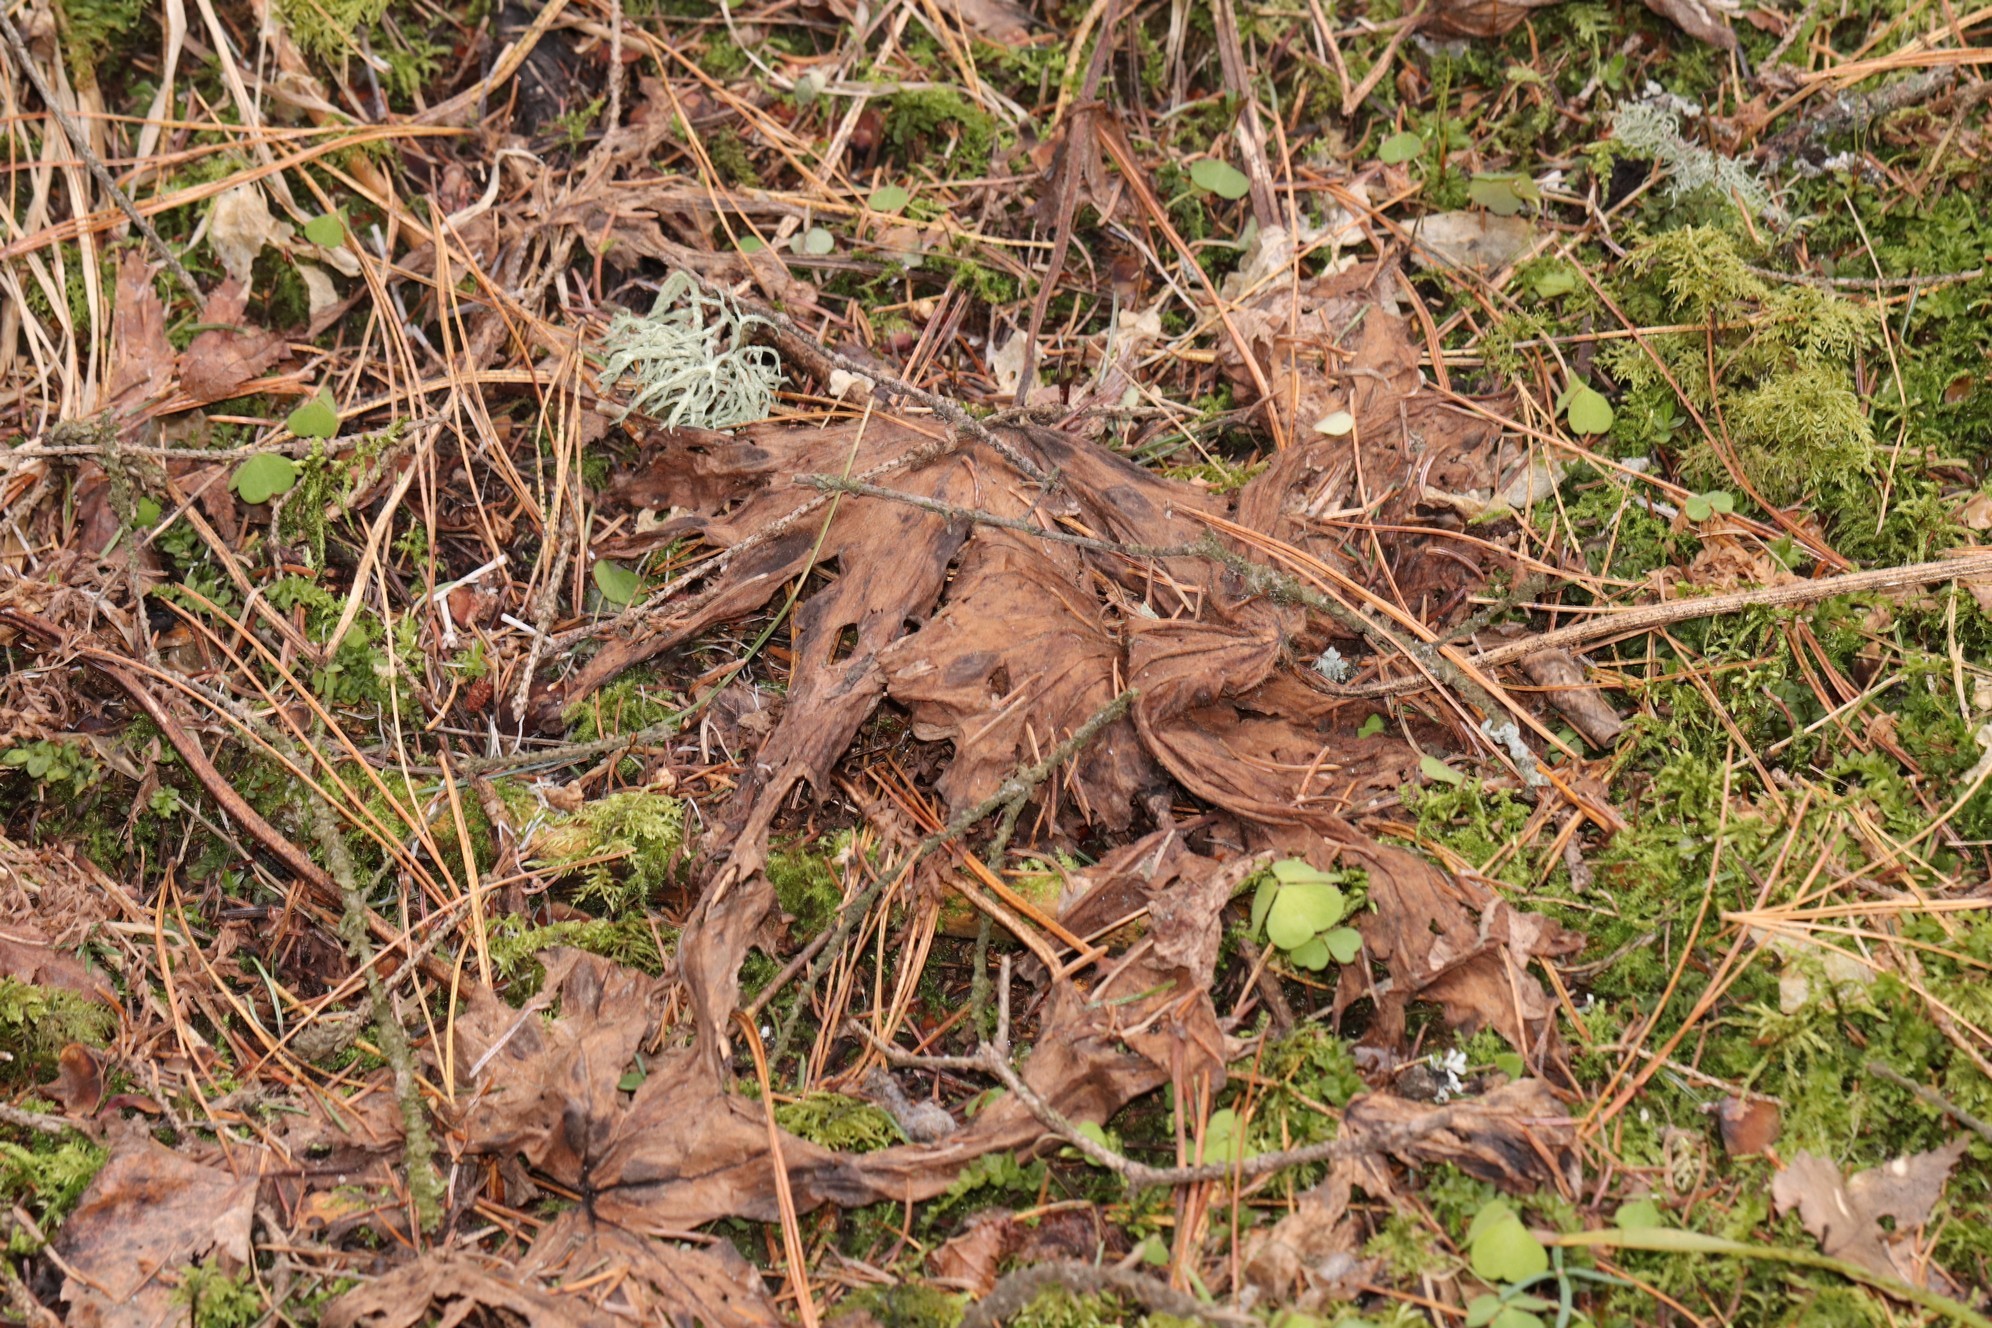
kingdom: Plantae
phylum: Tracheophyta
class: Magnoliopsida
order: Ranunculales
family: Ranunculaceae
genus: Aconitum
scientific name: Aconitum septentrionale
